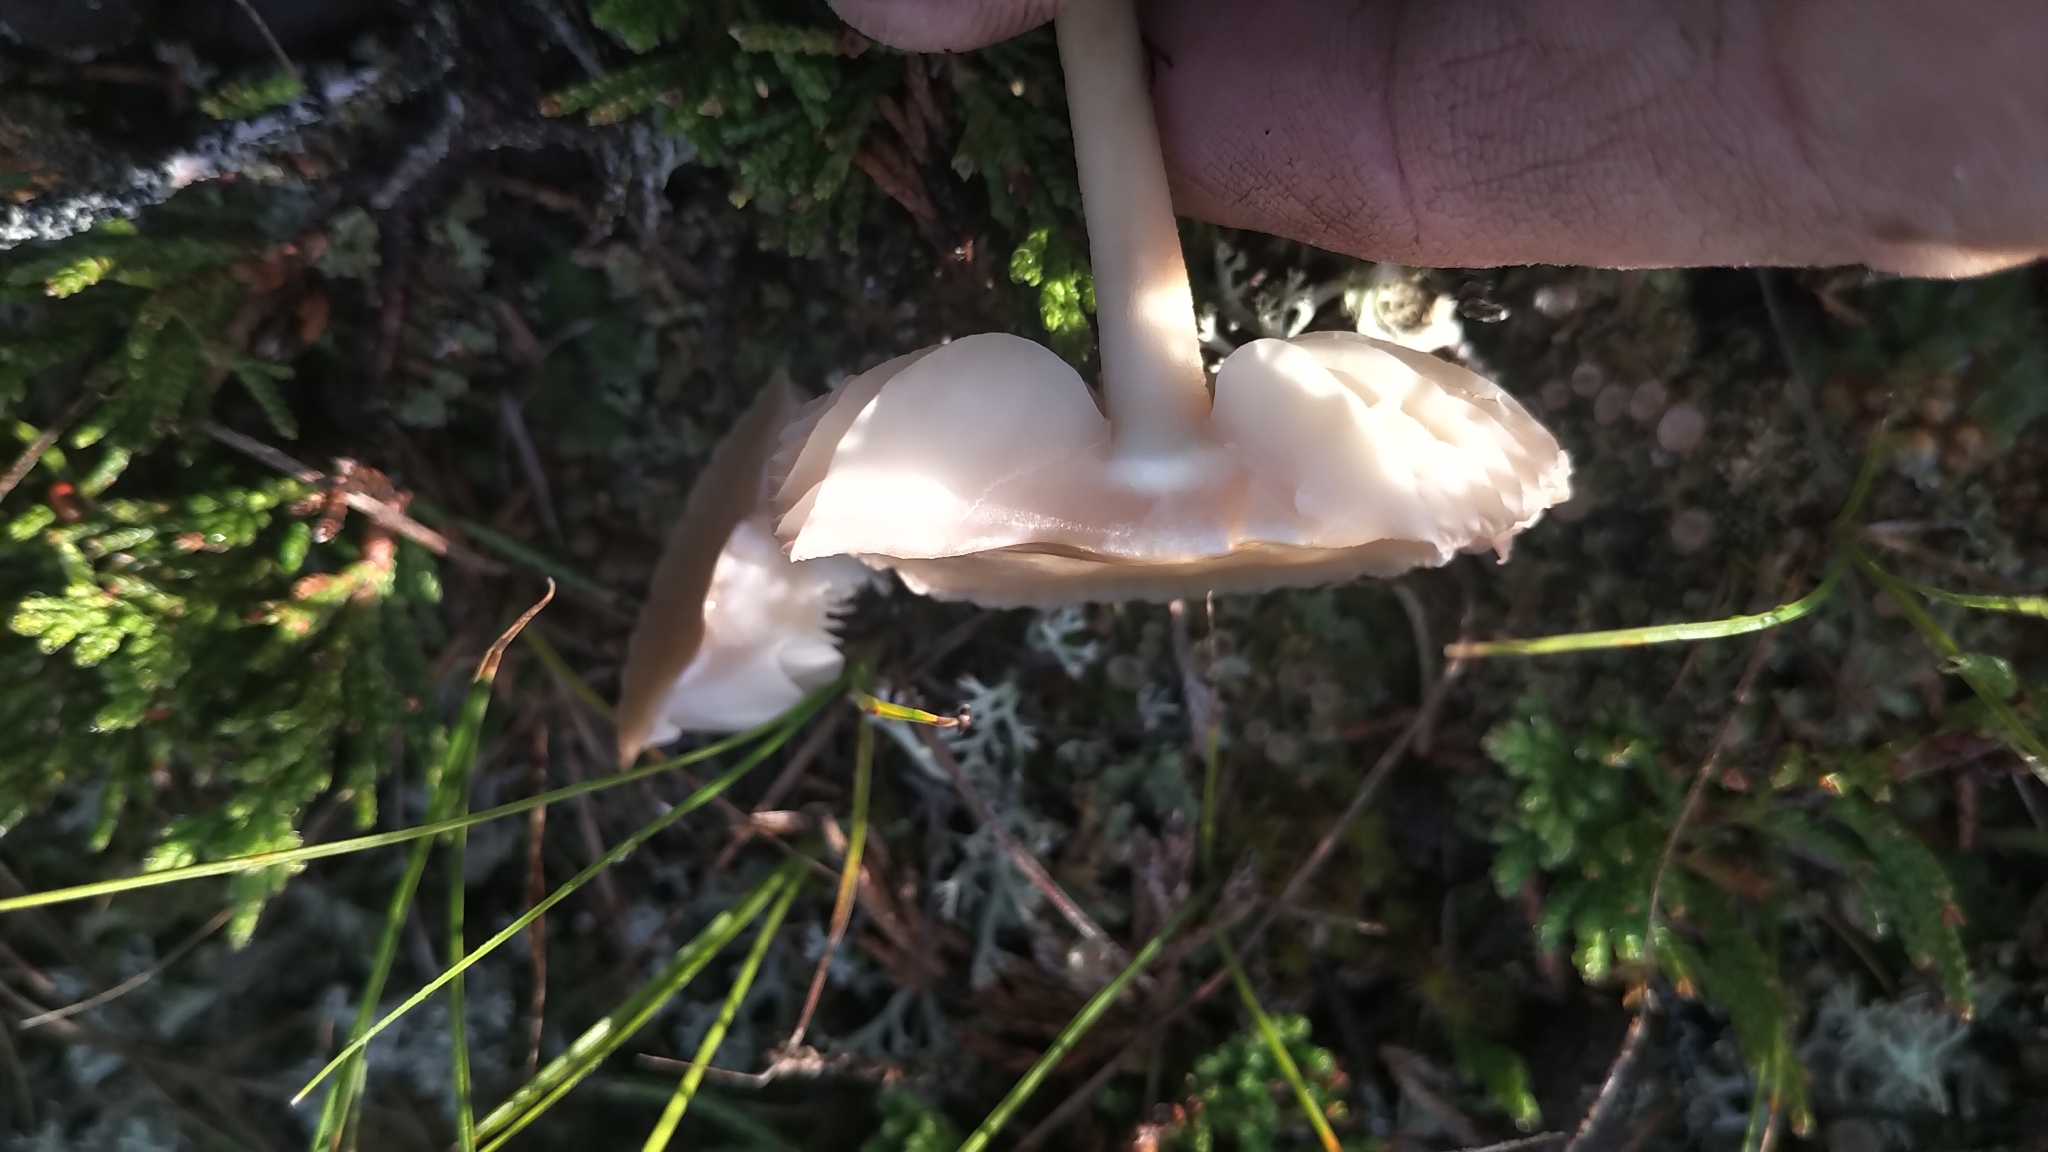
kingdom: Fungi
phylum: Basidiomycota
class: Agaricomycetes
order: Agaricales
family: Marasmiaceae
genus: Marasmius
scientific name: Marasmius oreades
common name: Fairy ring champignon
